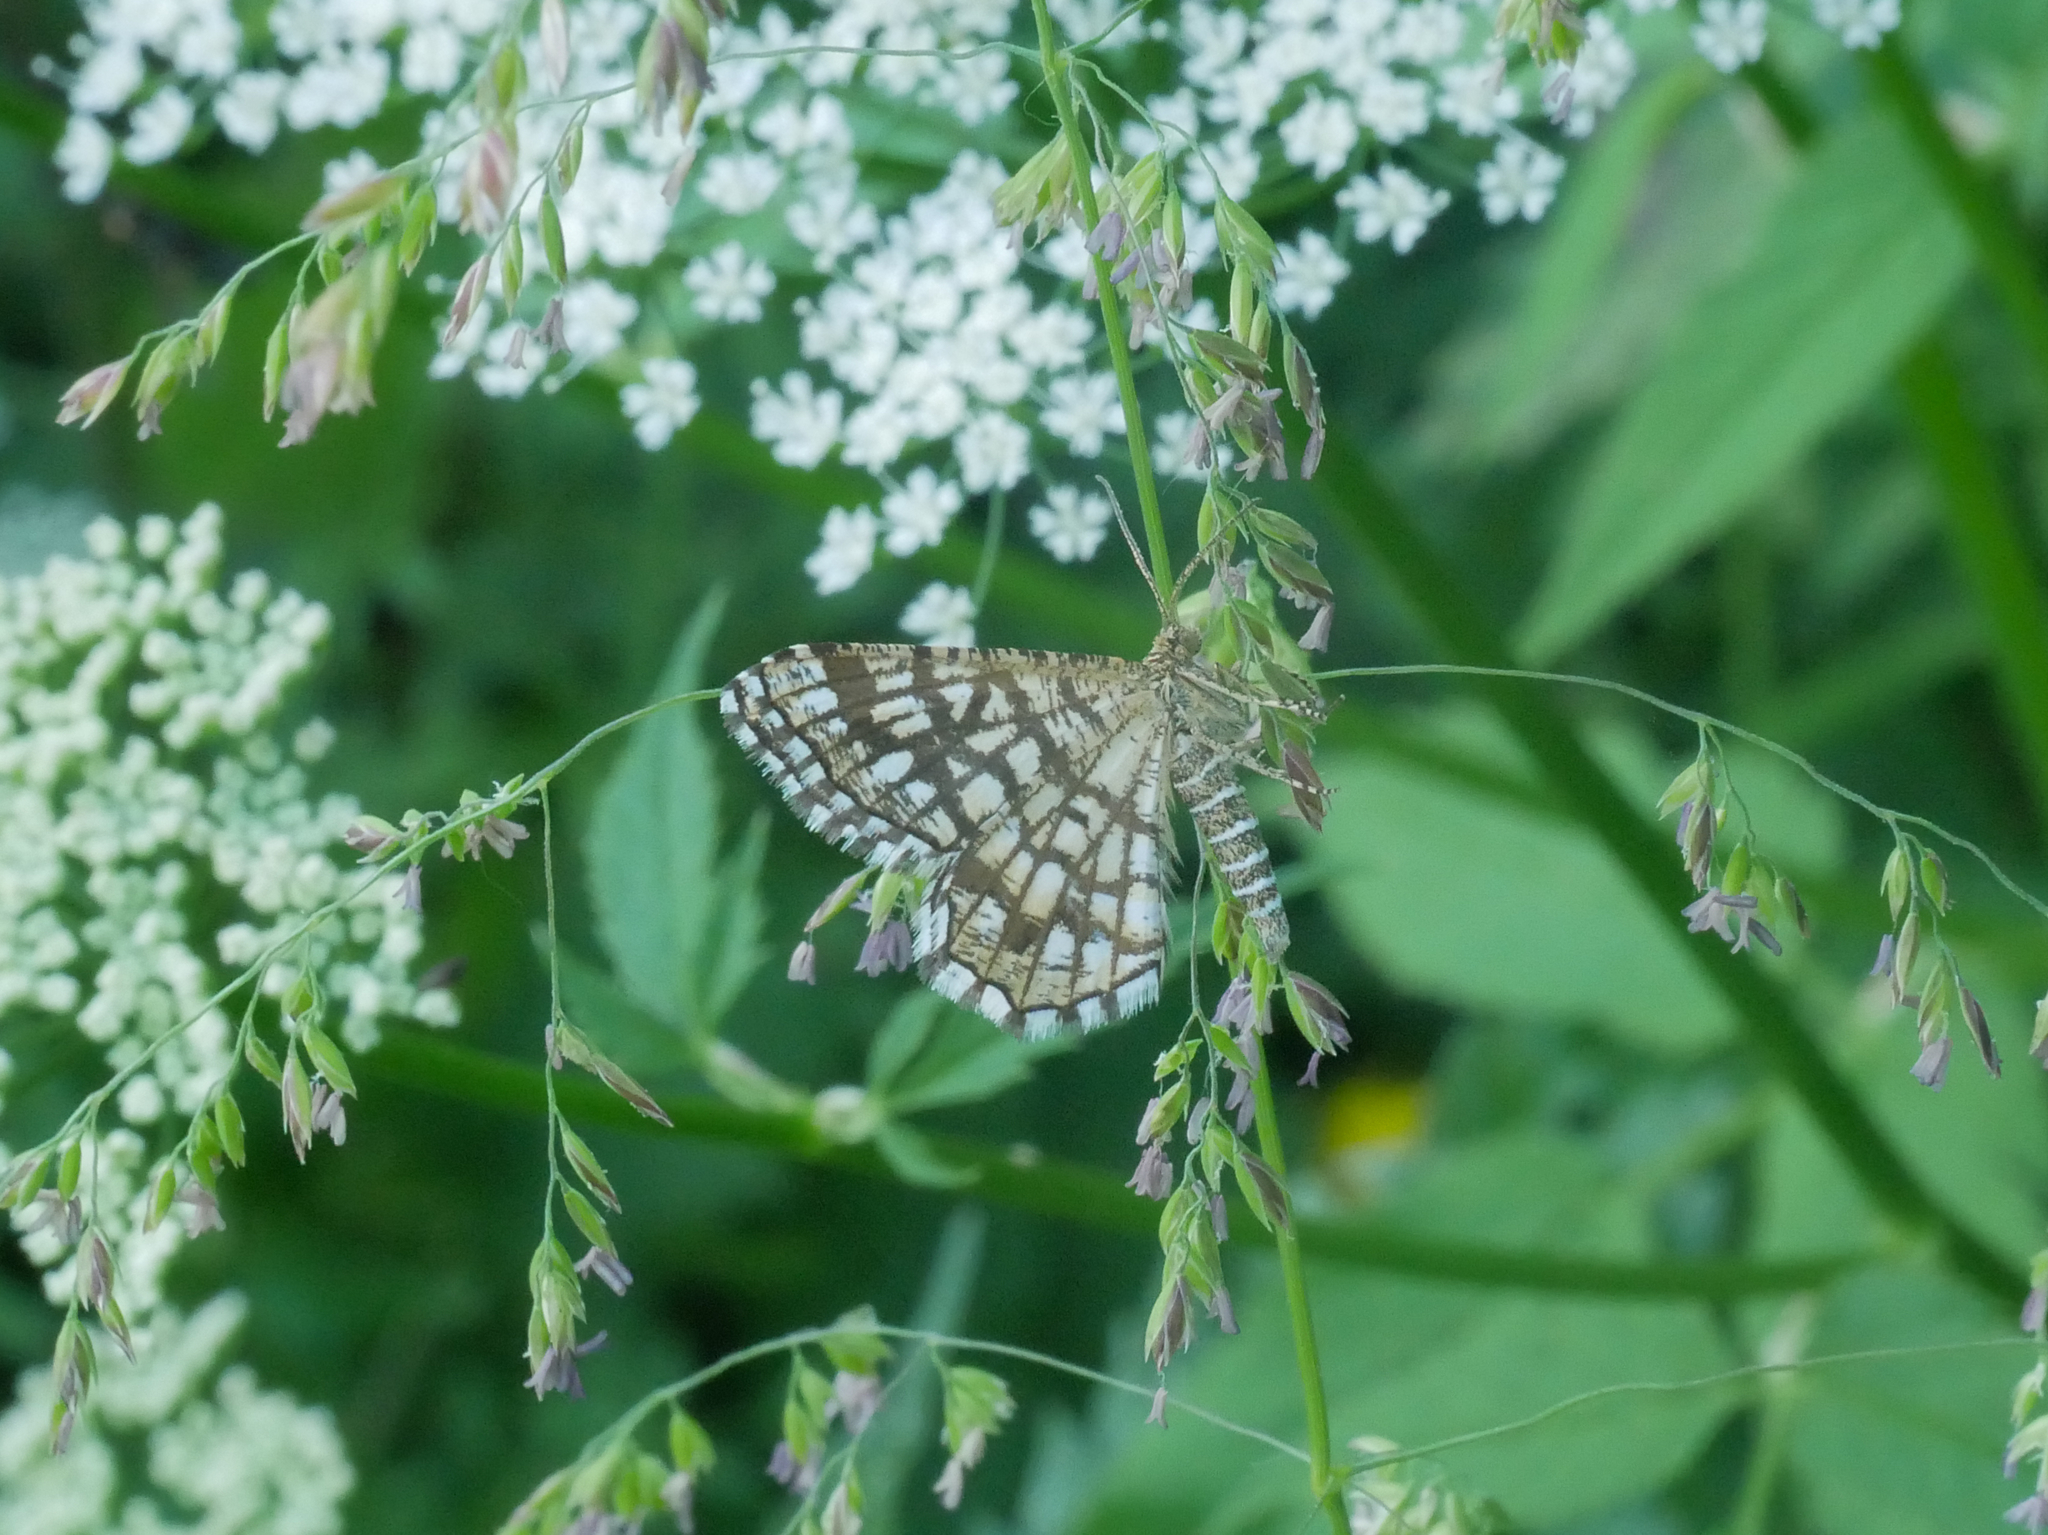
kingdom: Animalia
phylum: Arthropoda
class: Insecta
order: Lepidoptera
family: Geometridae
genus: Chiasmia
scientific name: Chiasmia clathrata
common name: Latticed heath
